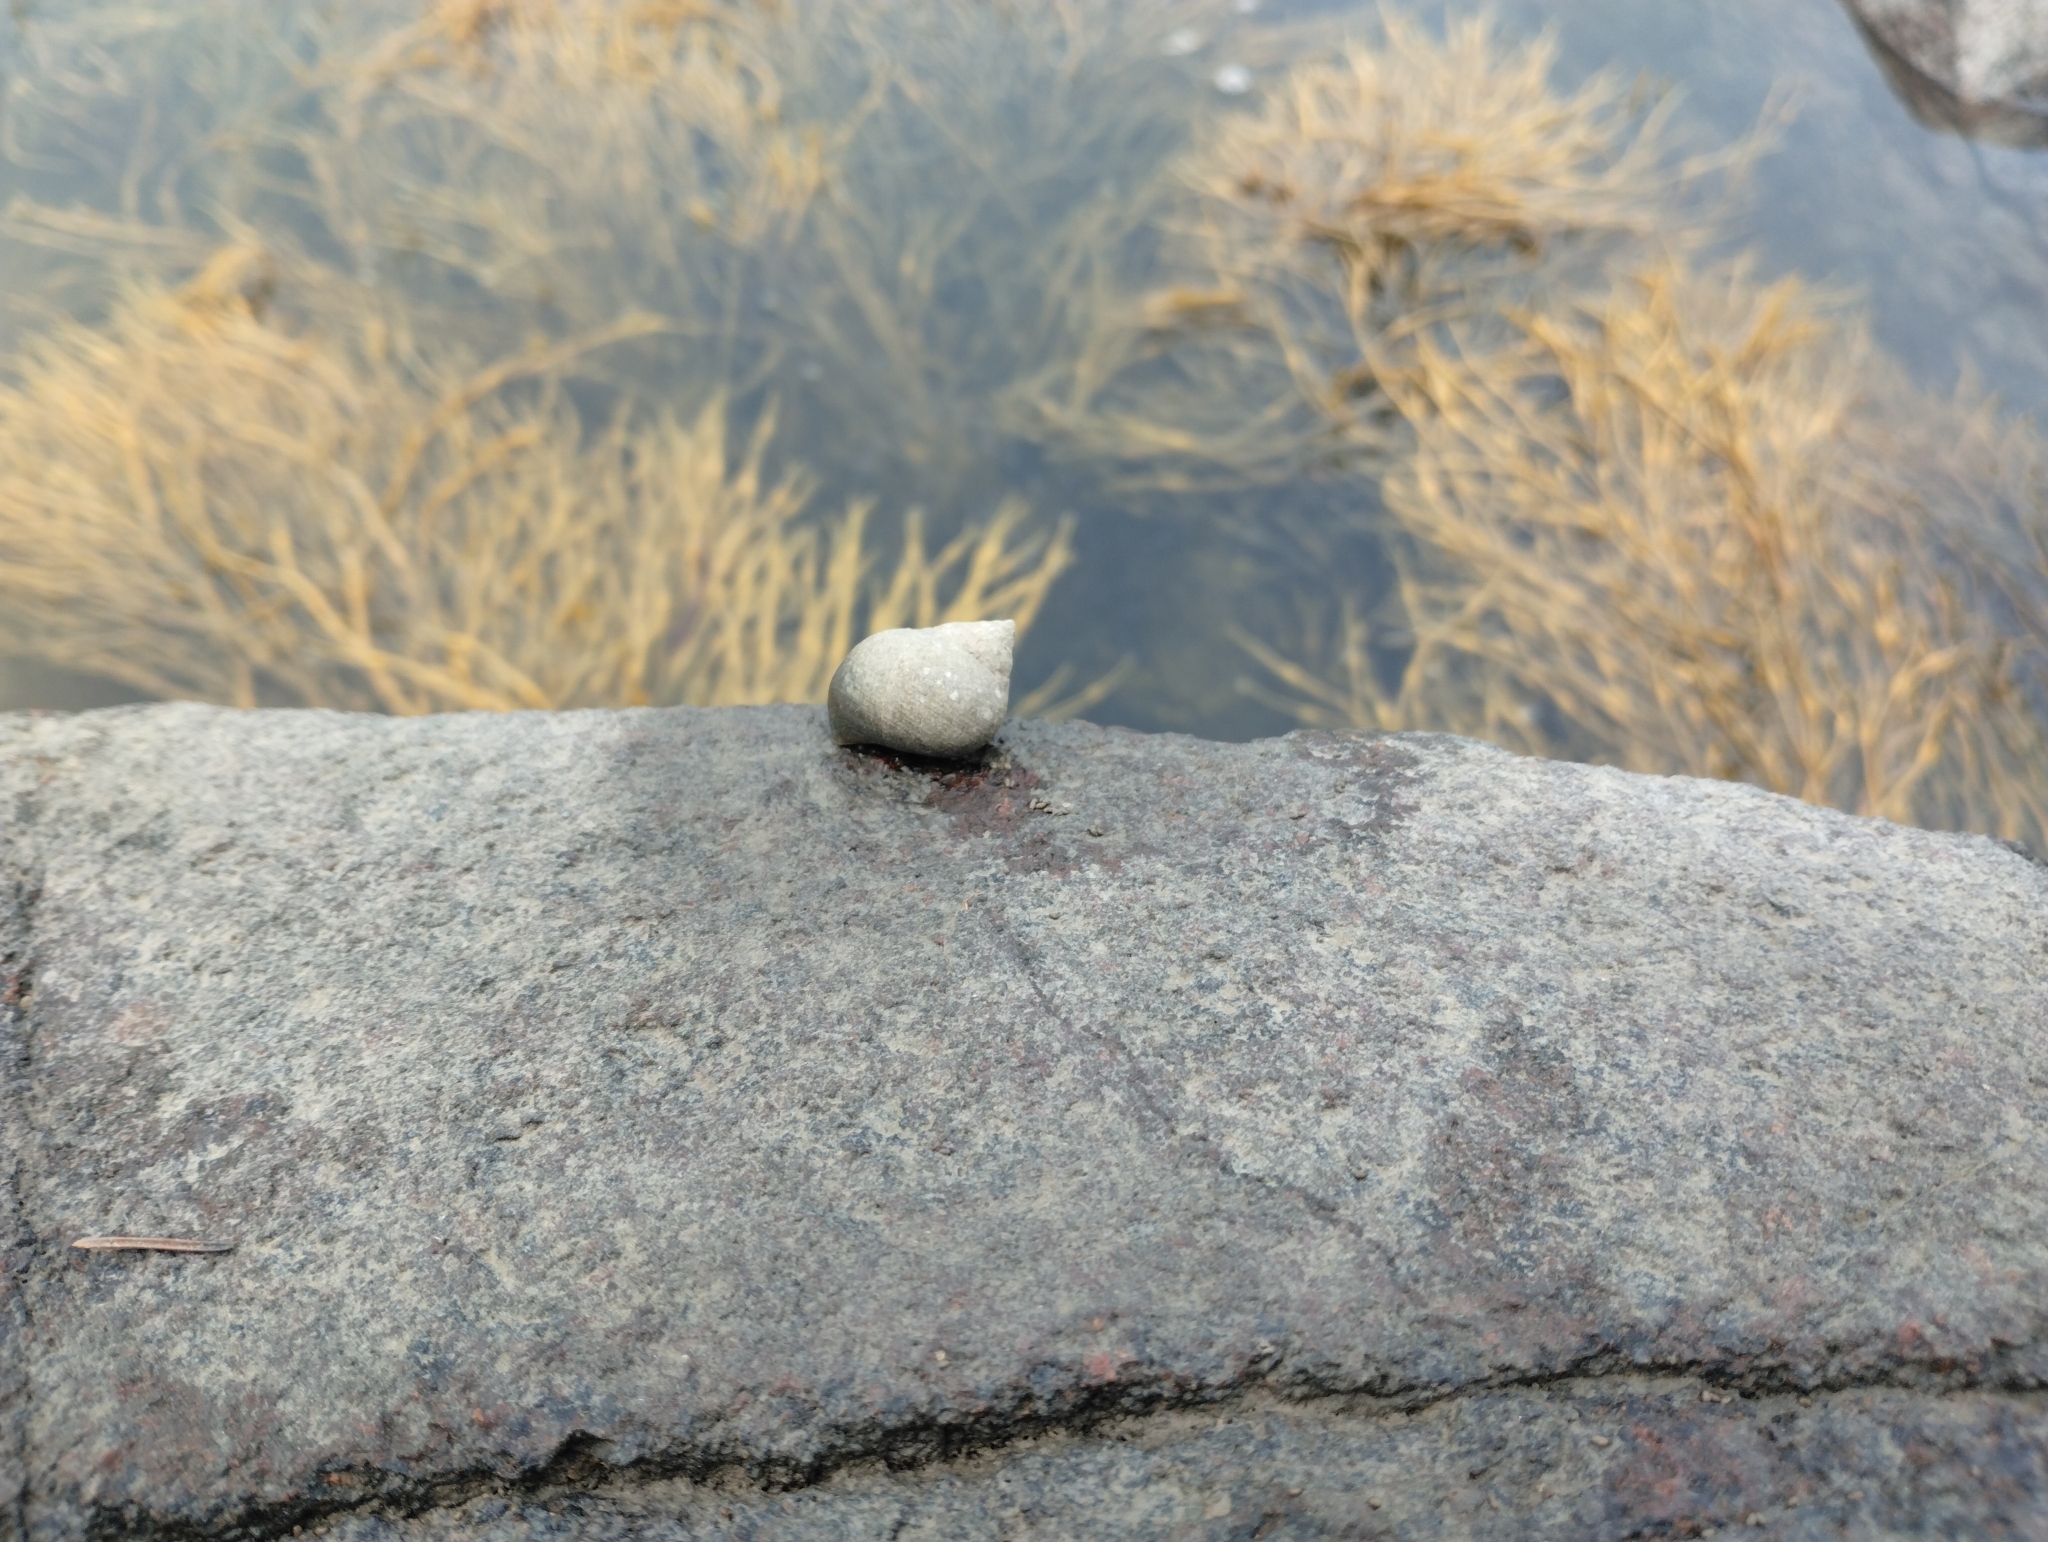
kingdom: Animalia
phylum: Mollusca
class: Gastropoda
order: Littorinimorpha
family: Littorinidae
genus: Littorina
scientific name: Littorina littorea
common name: Common periwinkle
